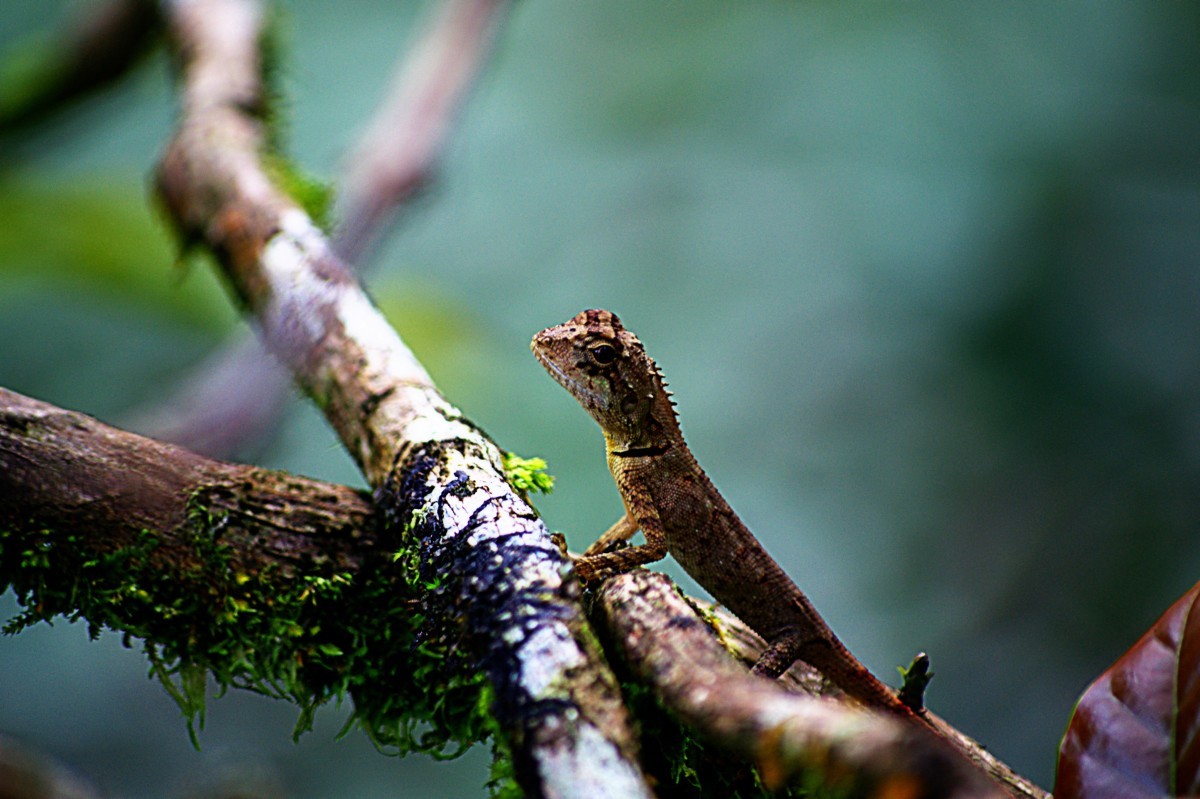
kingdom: Animalia
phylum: Chordata
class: Squamata
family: Agamidae
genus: Monilesaurus
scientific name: Monilesaurus rouxii
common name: Roux's forest lizard
